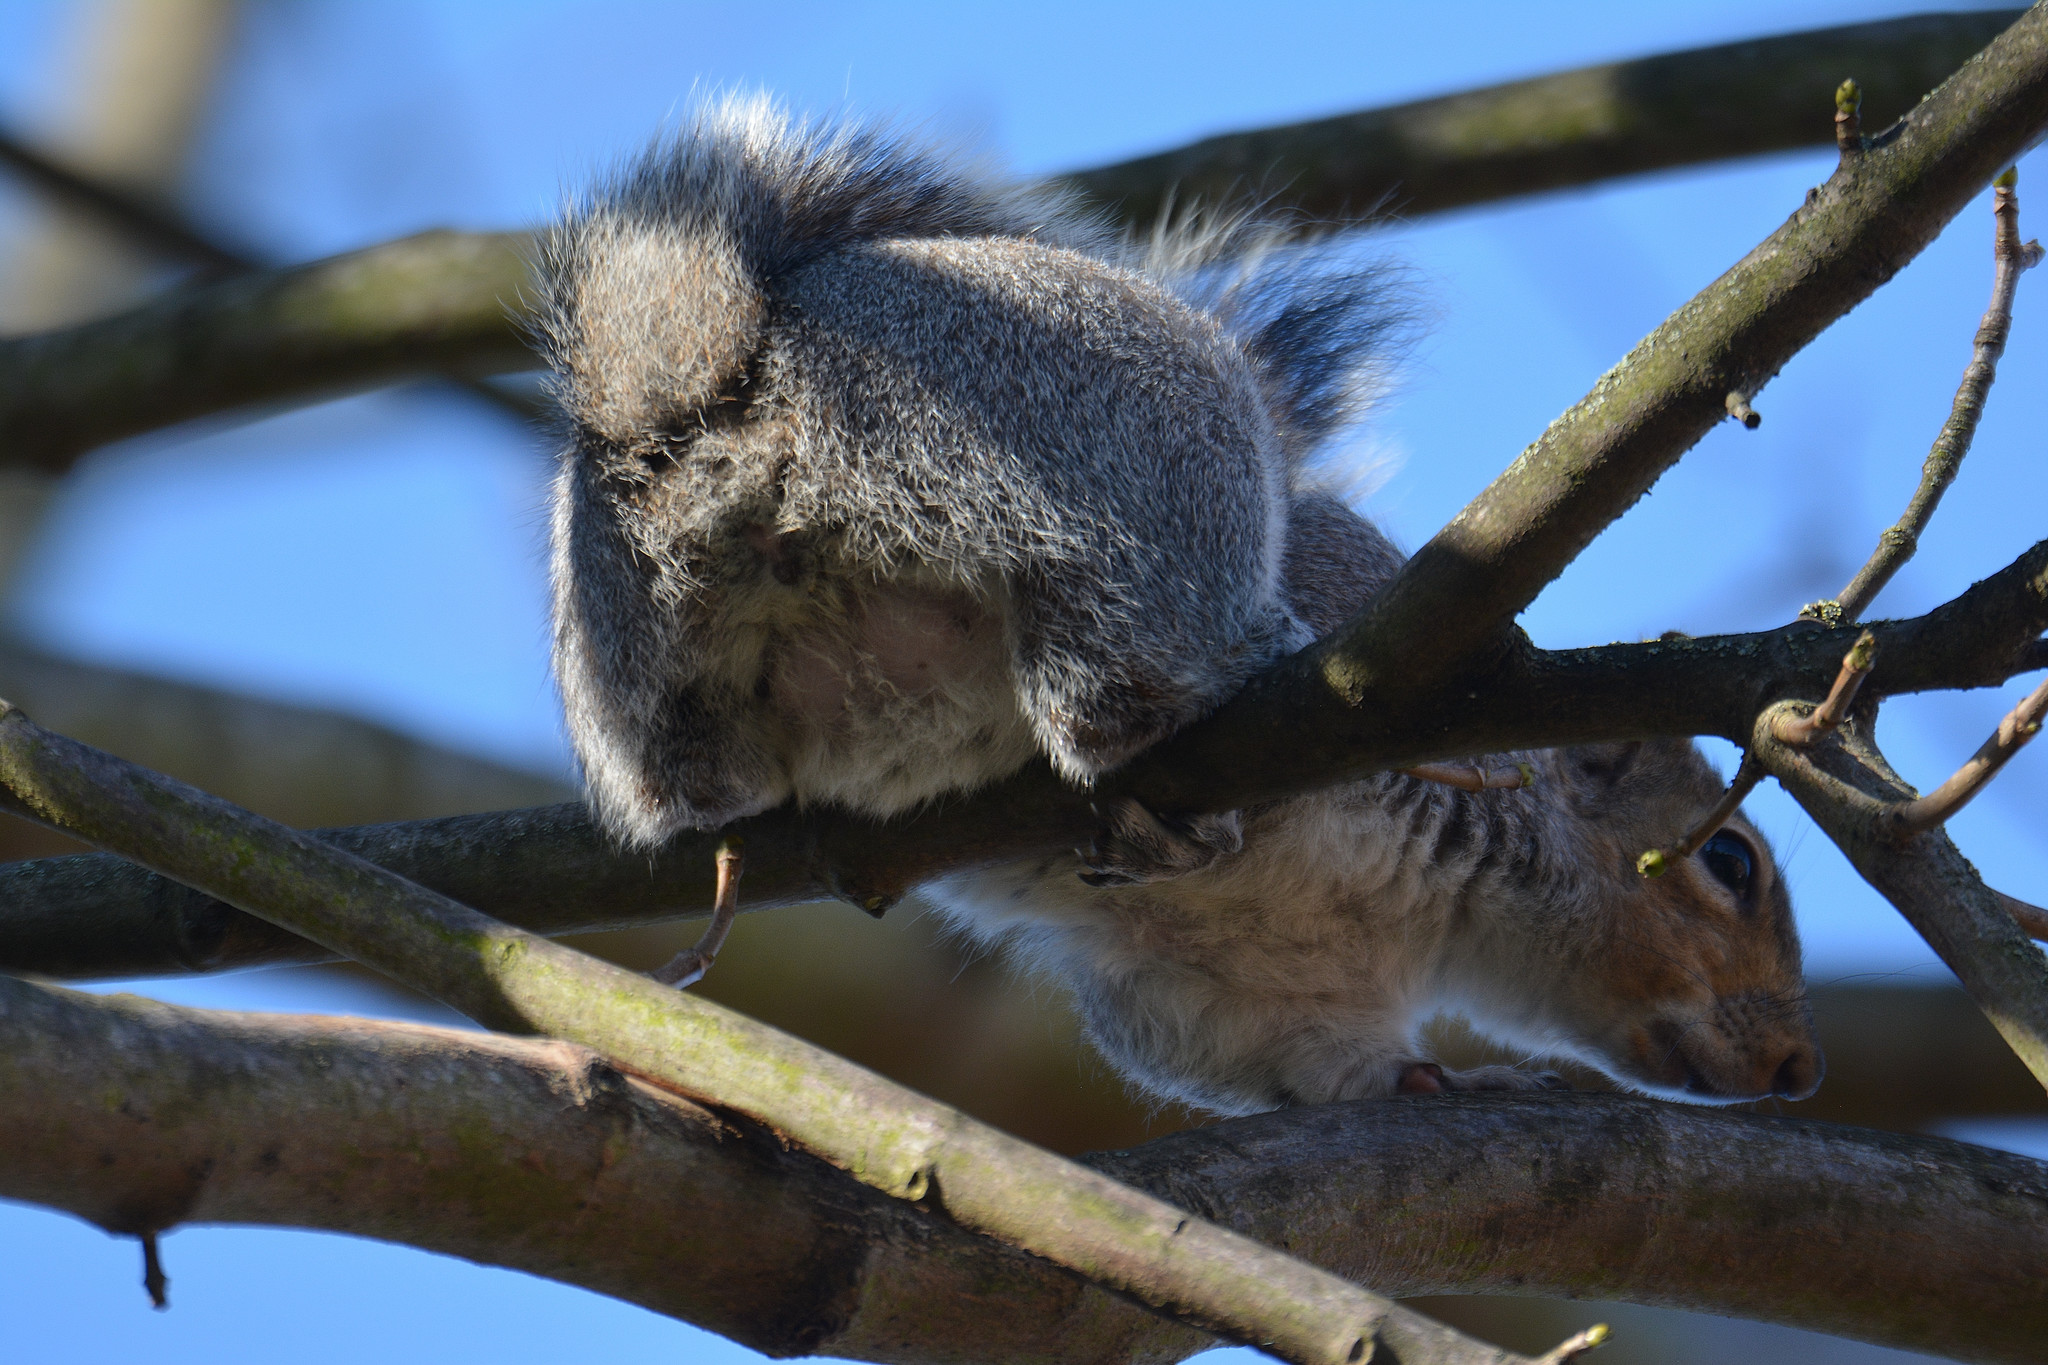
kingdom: Animalia
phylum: Chordata
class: Mammalia
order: Rodentia
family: Sciuridae
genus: Sciurus
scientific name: Sciurus carolinensis
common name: Eastern gray squirrel
